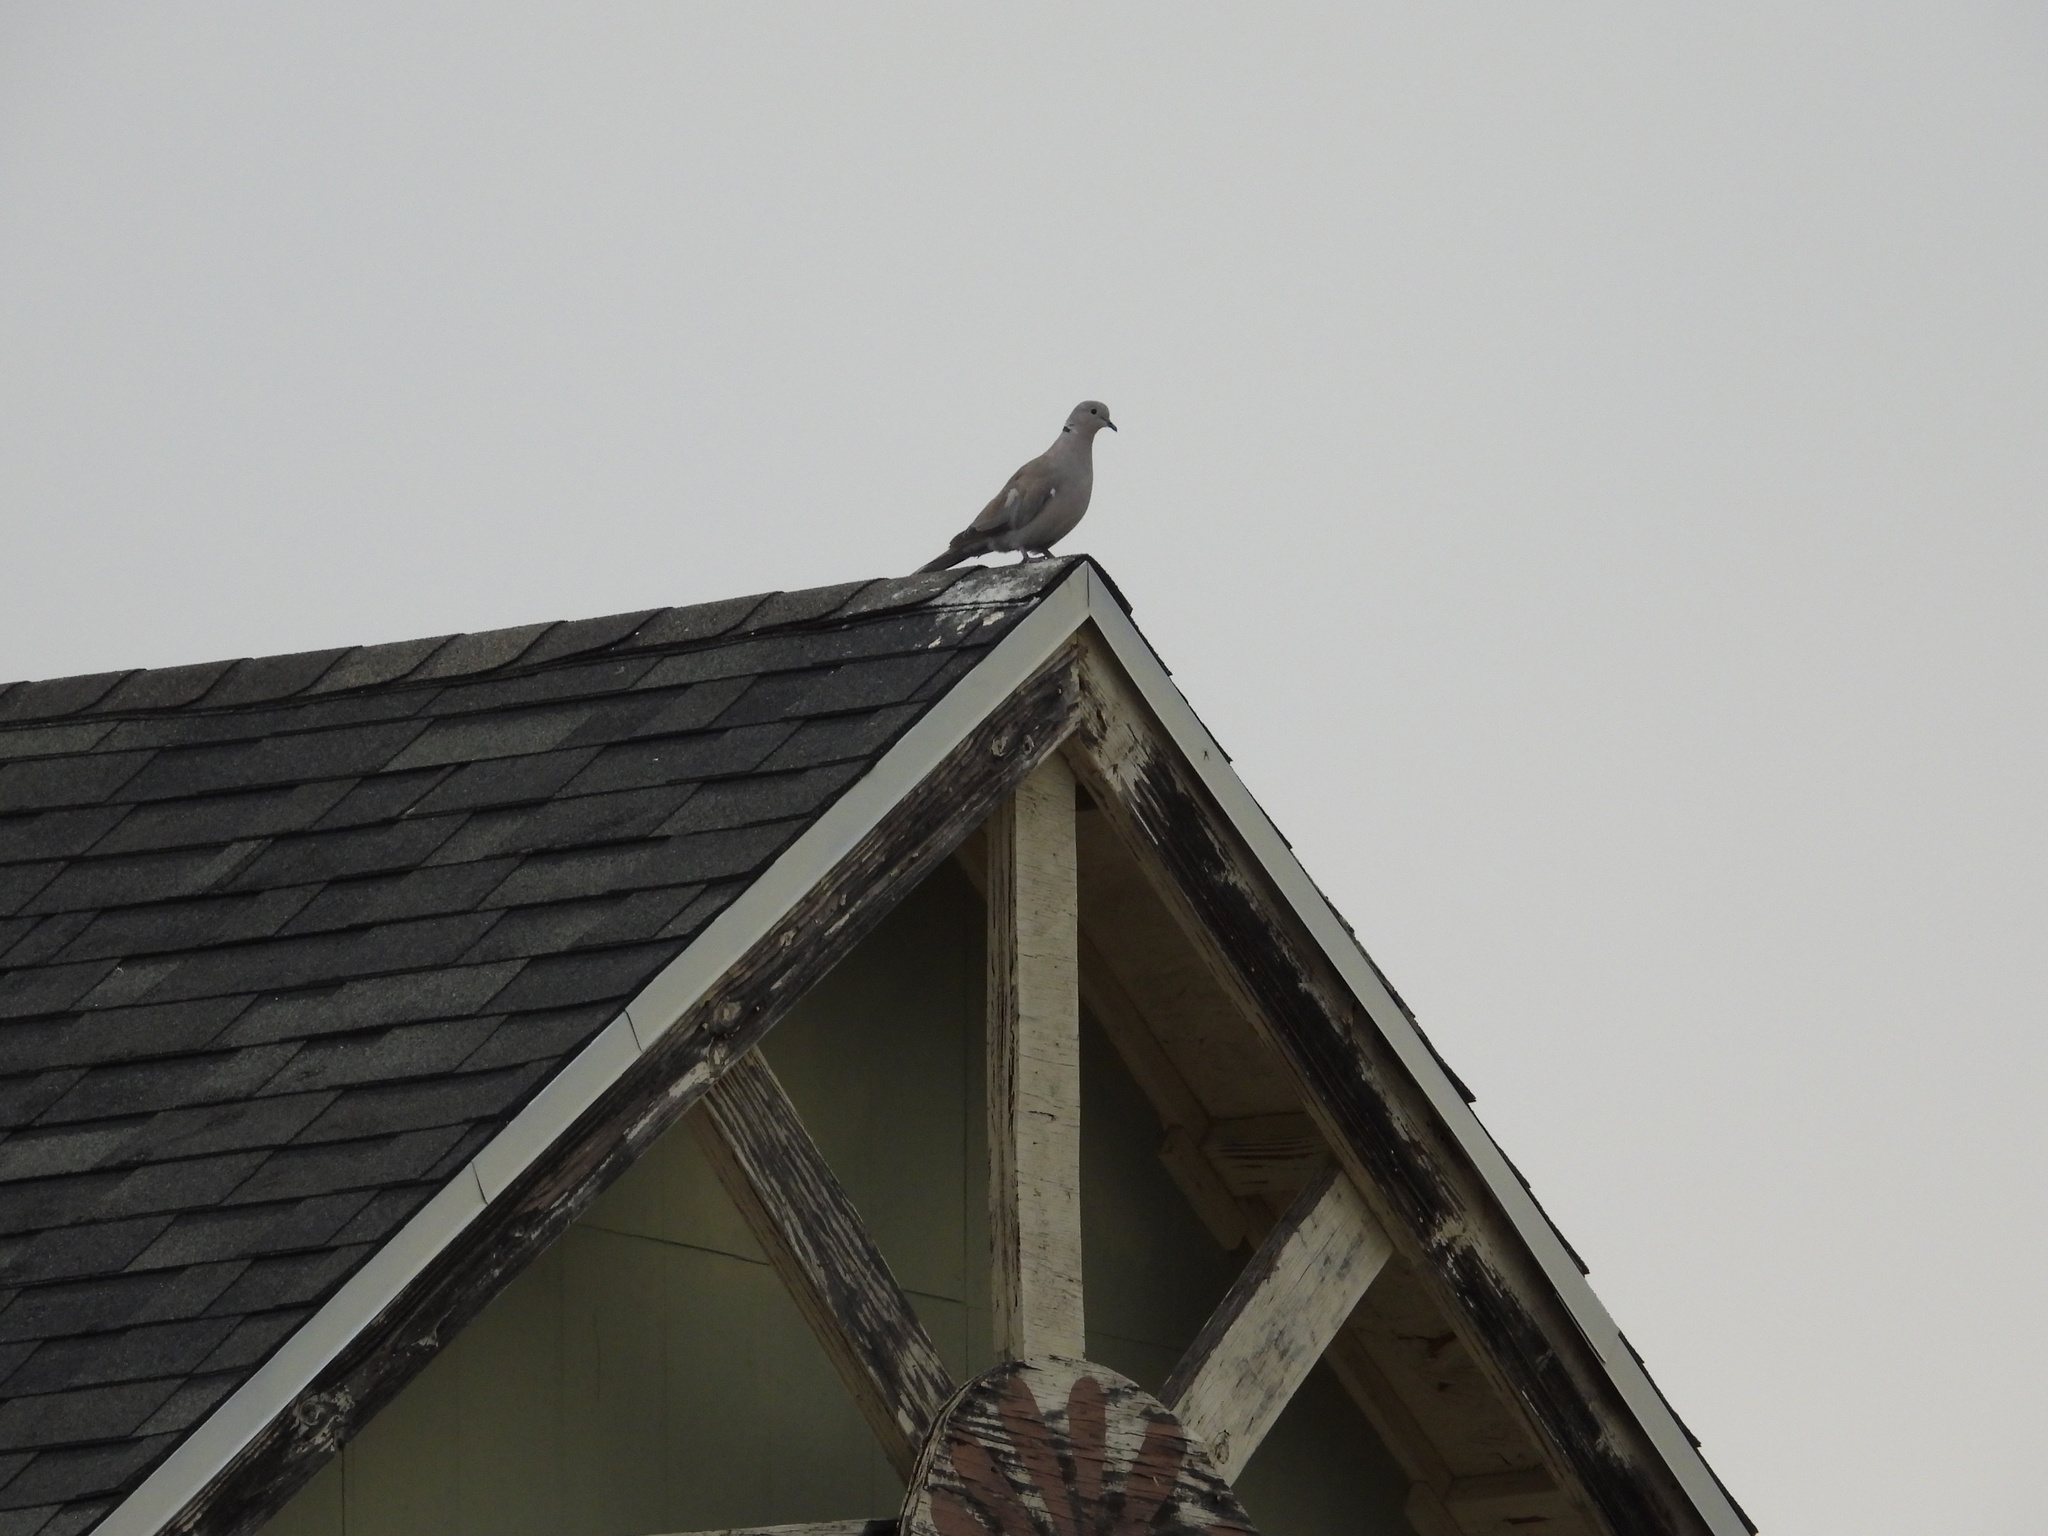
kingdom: Animalia
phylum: Chordata
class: Aves
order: Columbiformes
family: Columbidae
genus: Streptopelia
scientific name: Streptopelia decaocto
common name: Eurasian collared dove
